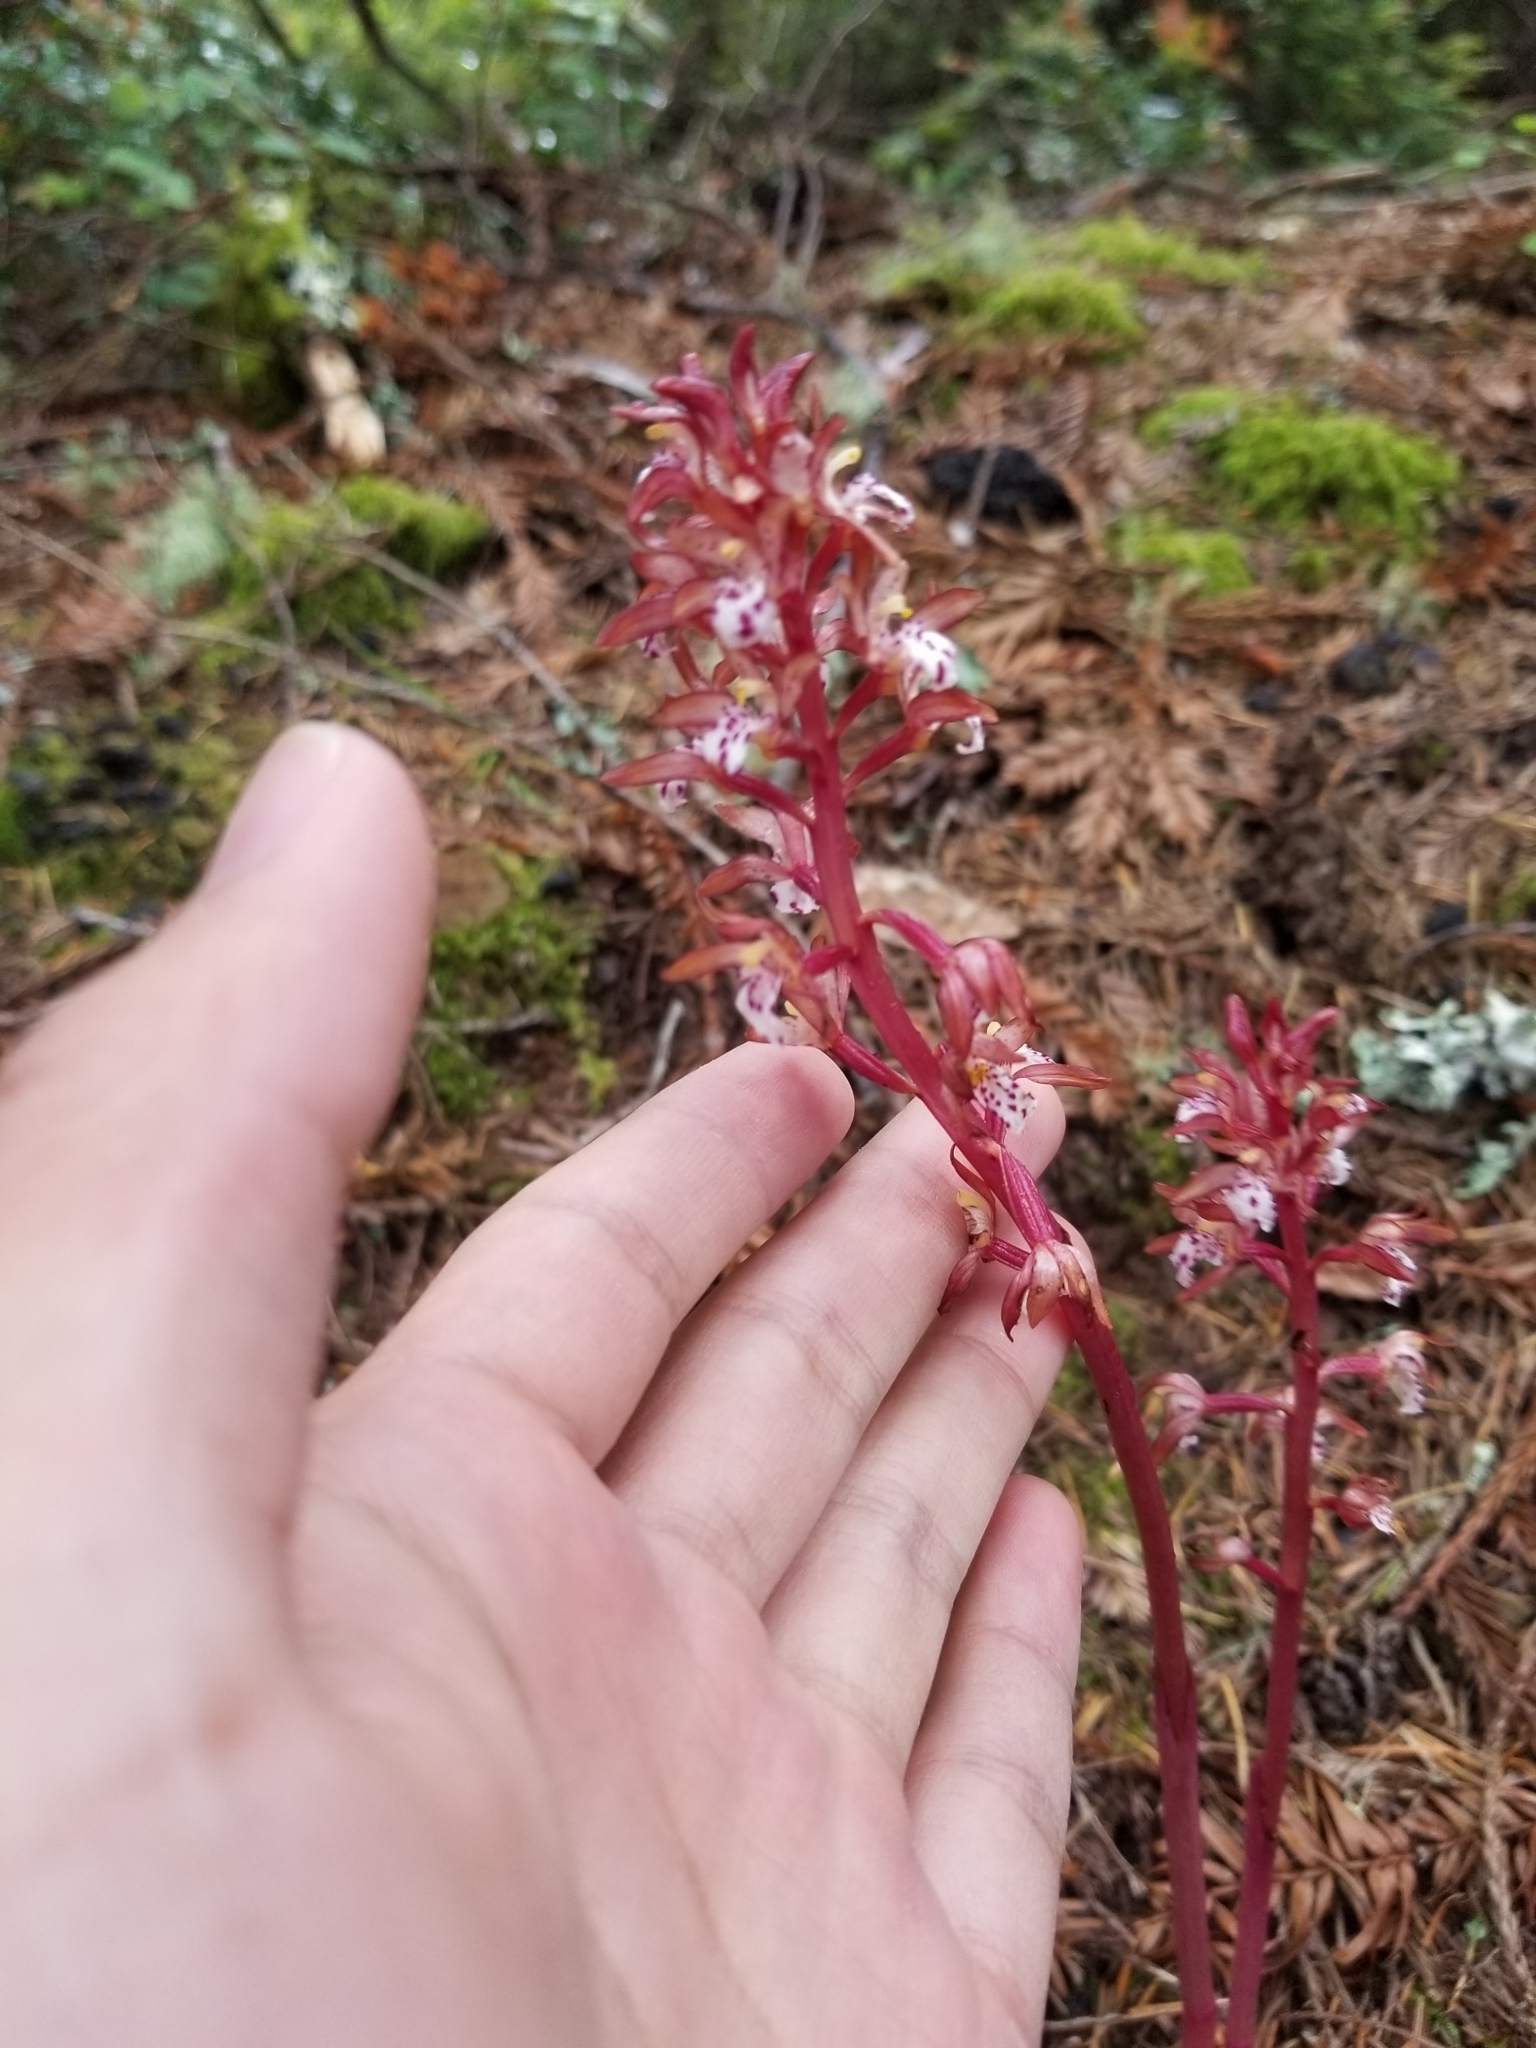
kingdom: Plantae
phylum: Tracheophyta
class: Liliopsida
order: Asparagales
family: Orchidaceae
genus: Corallorhiza
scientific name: Corallorhiza maculata
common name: Spotted coralroot
